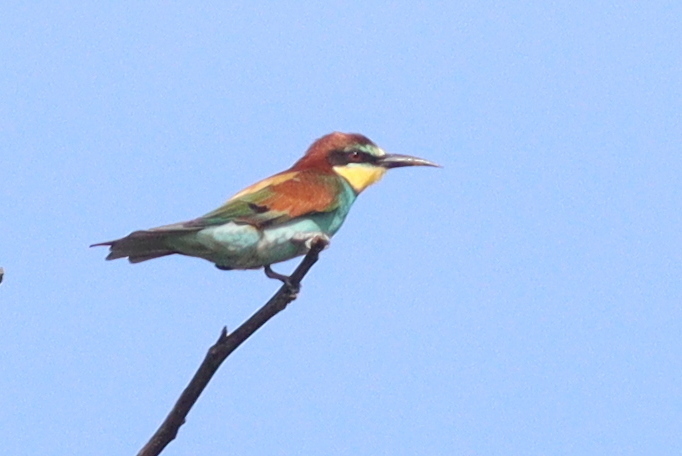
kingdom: Animalia
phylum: Chordata
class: Aves
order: Coraciiformes
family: Meropidae
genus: Merops
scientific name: Merops apiaster
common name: European bee-eater
